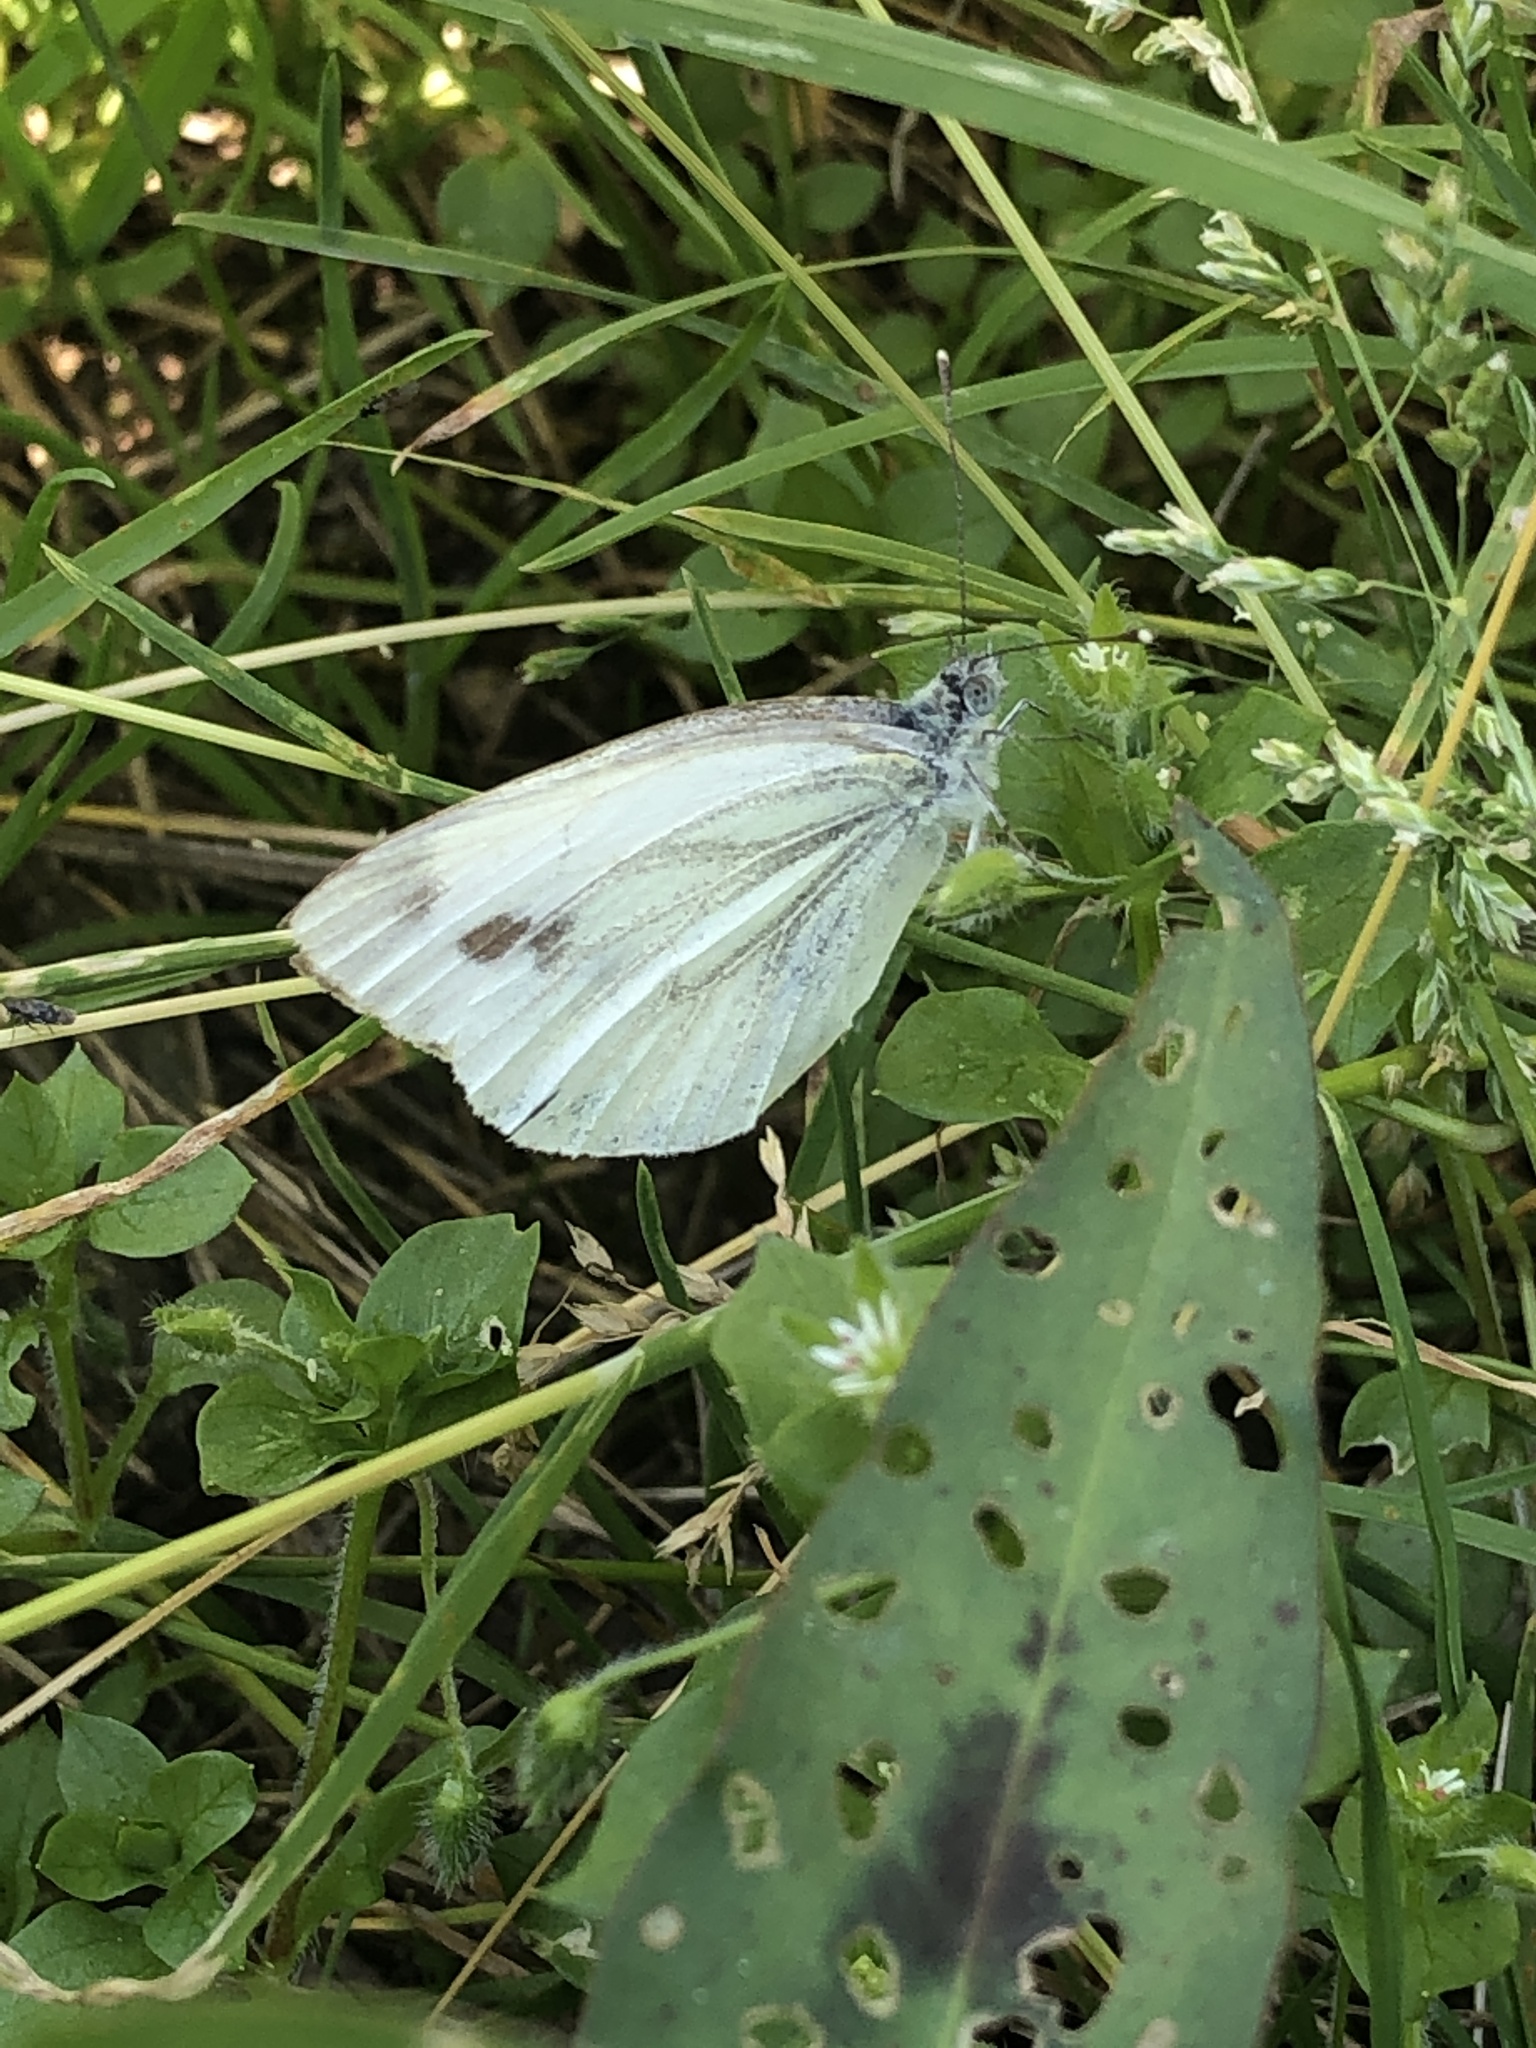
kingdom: Animalia
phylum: Arthropoda
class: Insecta
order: Lepidoptera
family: Pieridae
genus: Pieris
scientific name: Pieris napi
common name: Green-veined white
